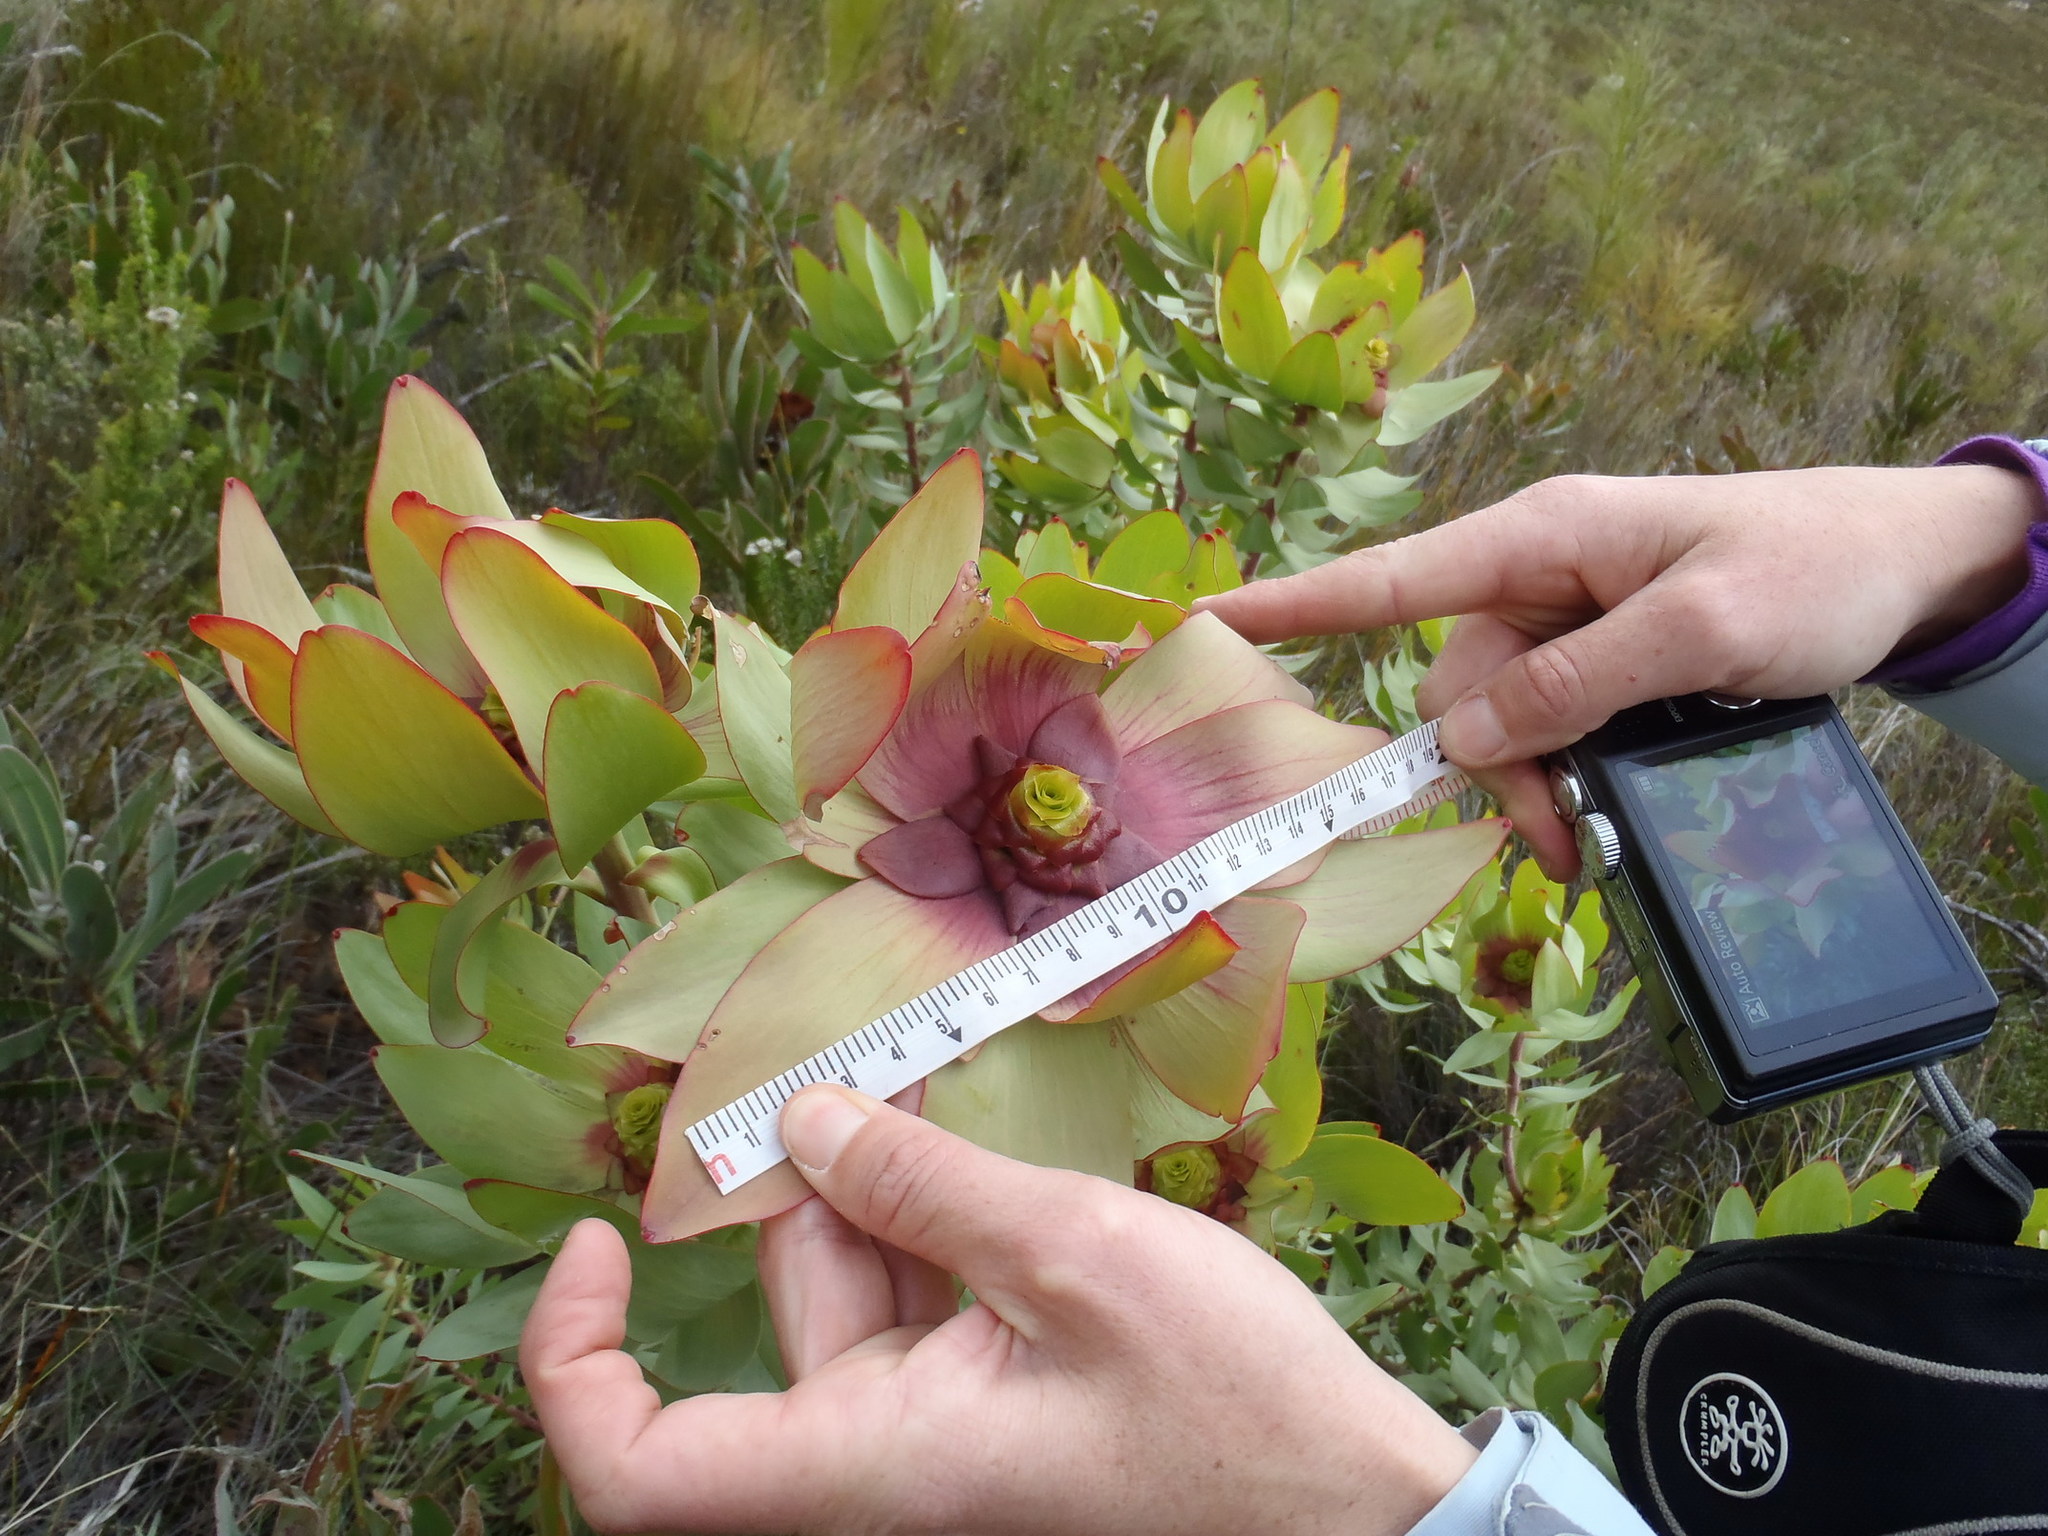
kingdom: Plantae
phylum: Tracheophyta
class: Magnoliopsida
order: Proteales
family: Proteaceae
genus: Leucadendron
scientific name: Leucadendron tinctum
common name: Spicy conebush
